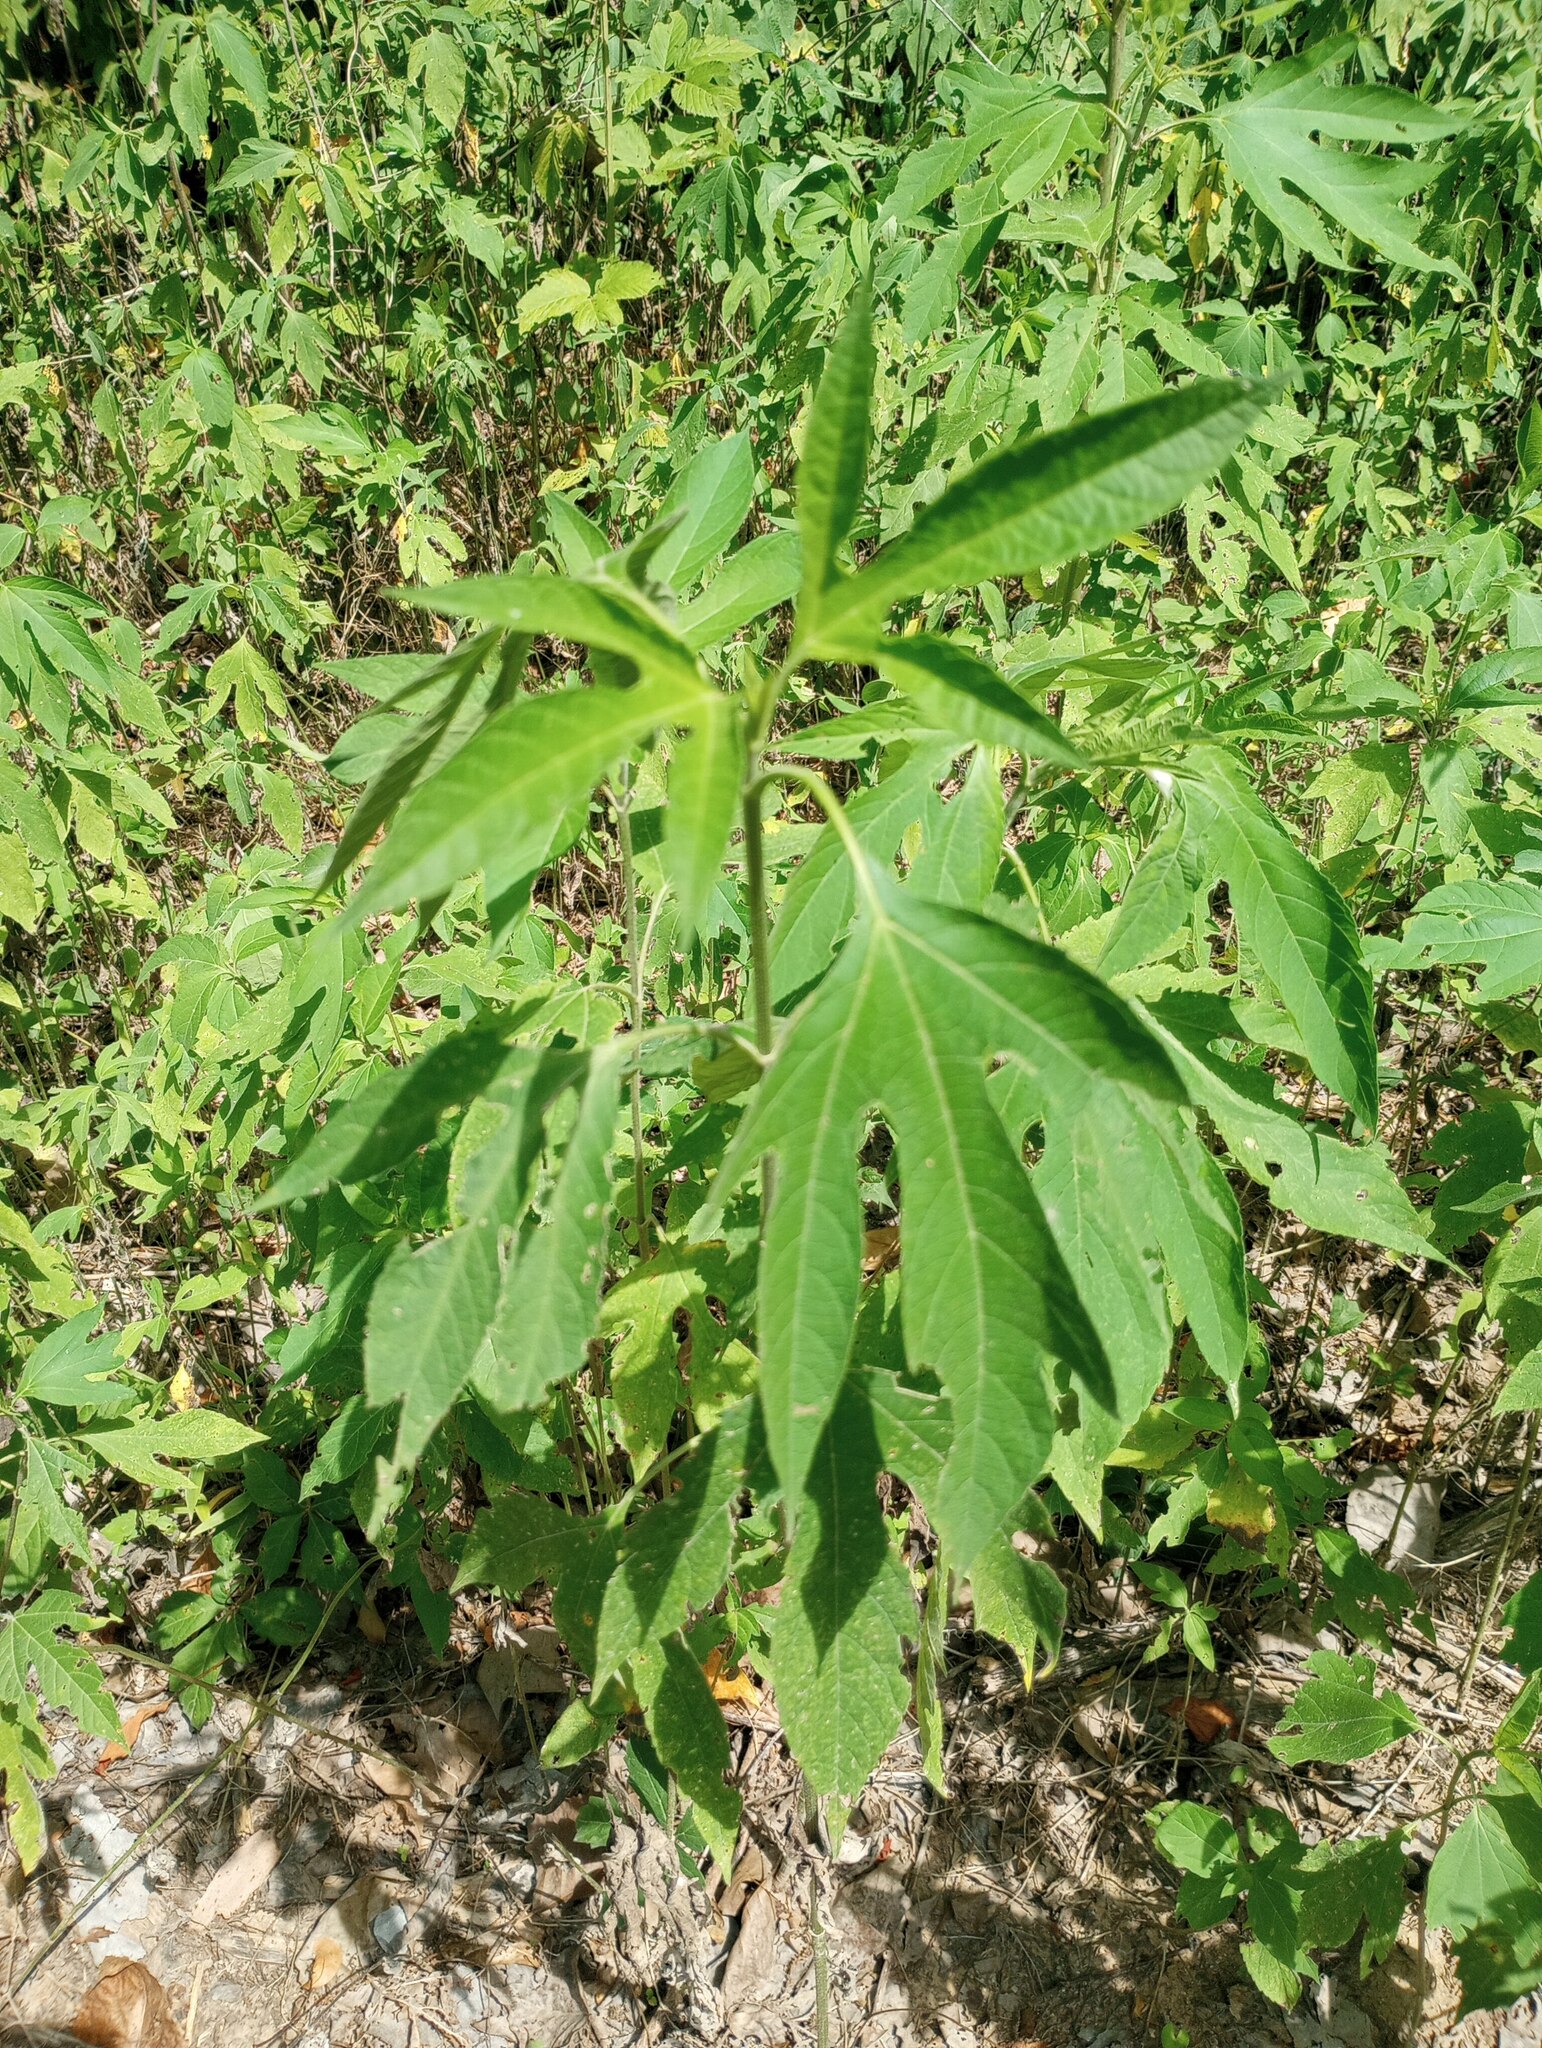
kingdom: Plantae
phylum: Tracheophyta
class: Magnoliopsida
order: Asterales
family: Asteraceae
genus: Ambrosia
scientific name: Ambrosia trifida
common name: Giant ragweed
